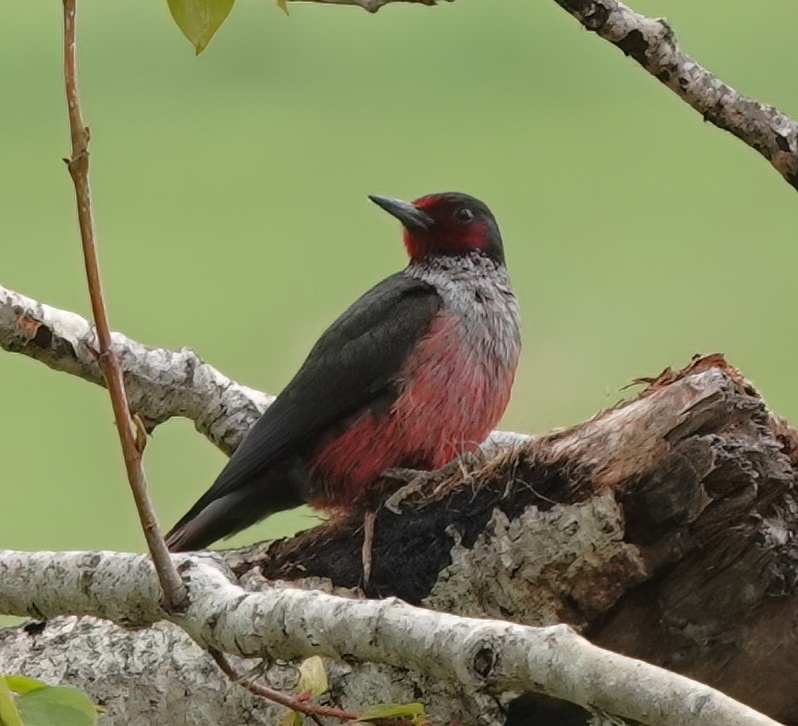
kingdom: Animalia
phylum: Chordata
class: Aves
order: Piciformes
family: Picidae
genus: Melanerpes
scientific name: Melanerpes lewis
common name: Lewis's woodpecker
